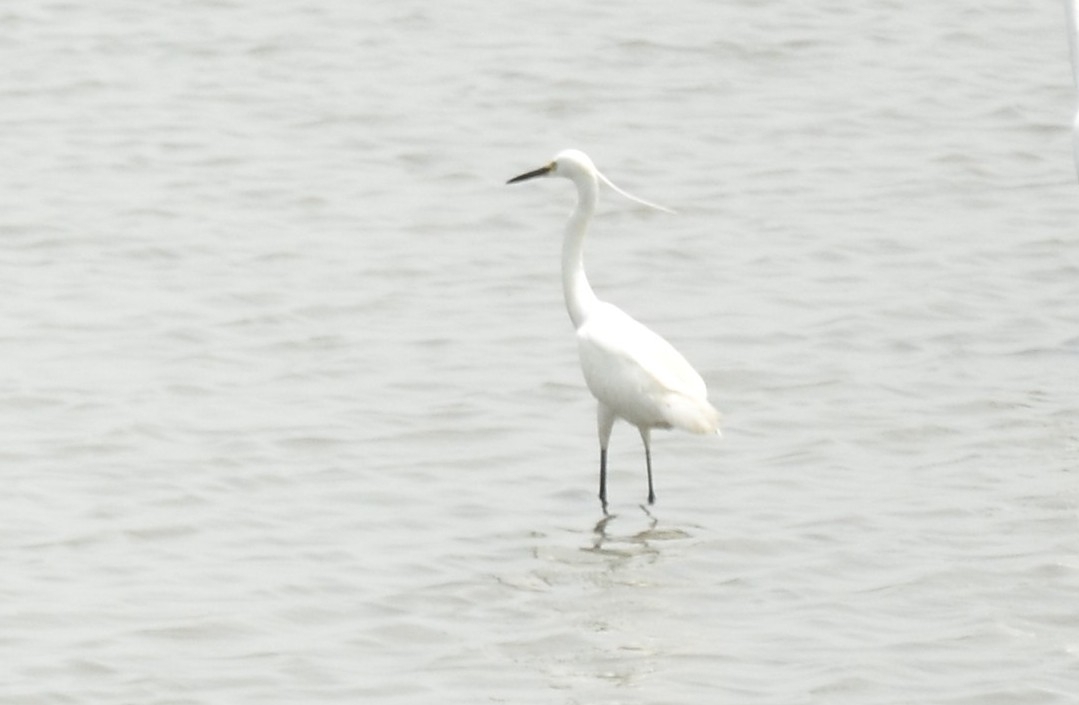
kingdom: Animalia
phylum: Chordata
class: Aves
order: Pelecaniformes
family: Ardeidae
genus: Egretta
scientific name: Egretta garzetta
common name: Little egret
